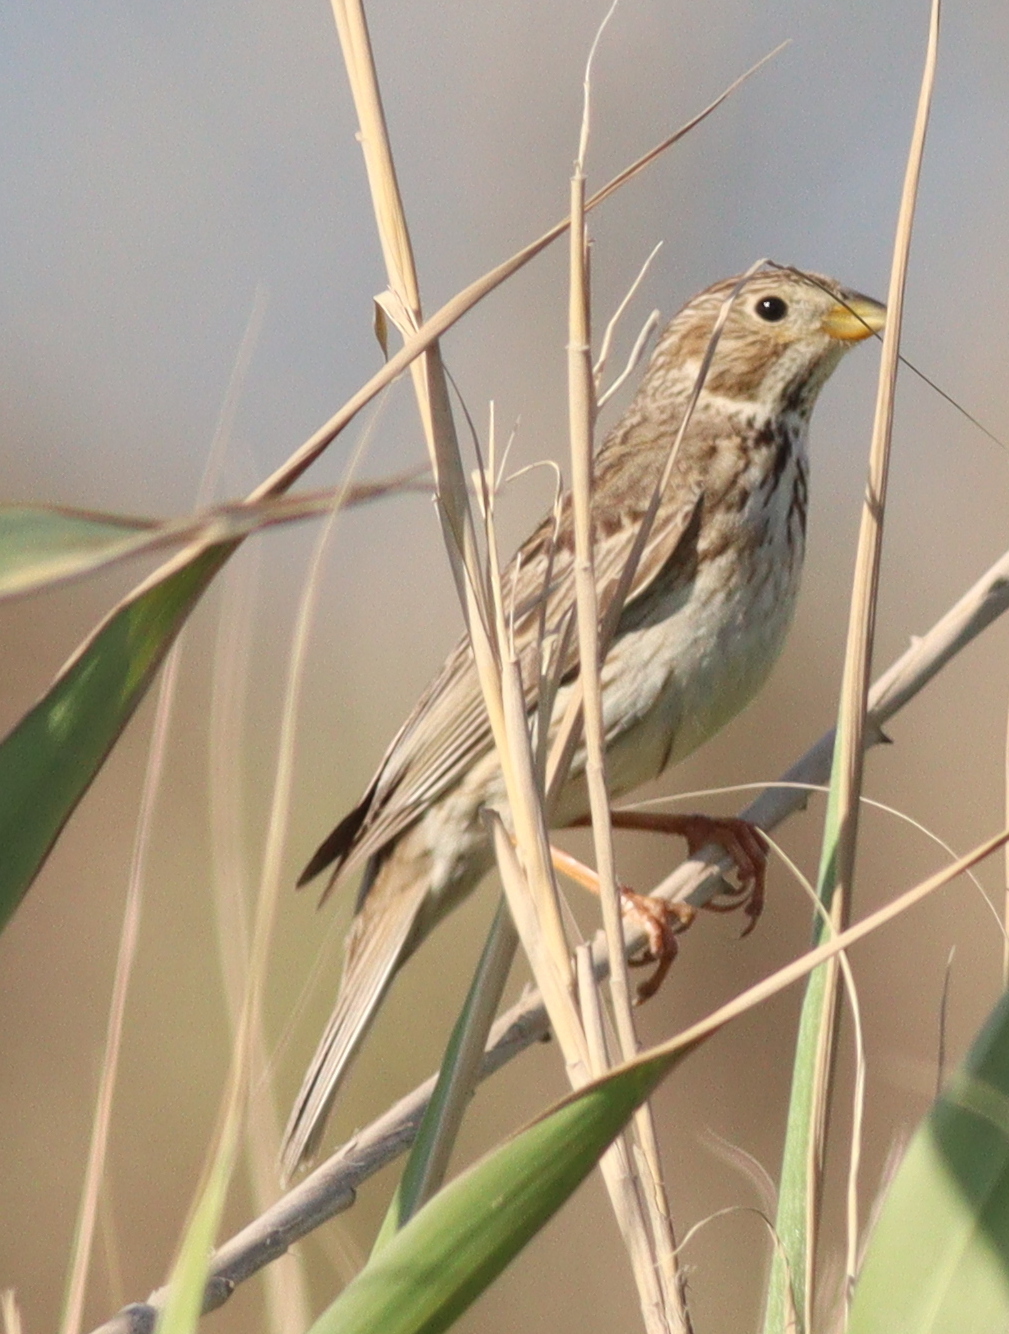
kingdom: Animalia
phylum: Chordata
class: Aves
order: Passeriformes
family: Emberizidae
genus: Emberiza
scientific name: Emberiza calandra
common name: Corn bunting
